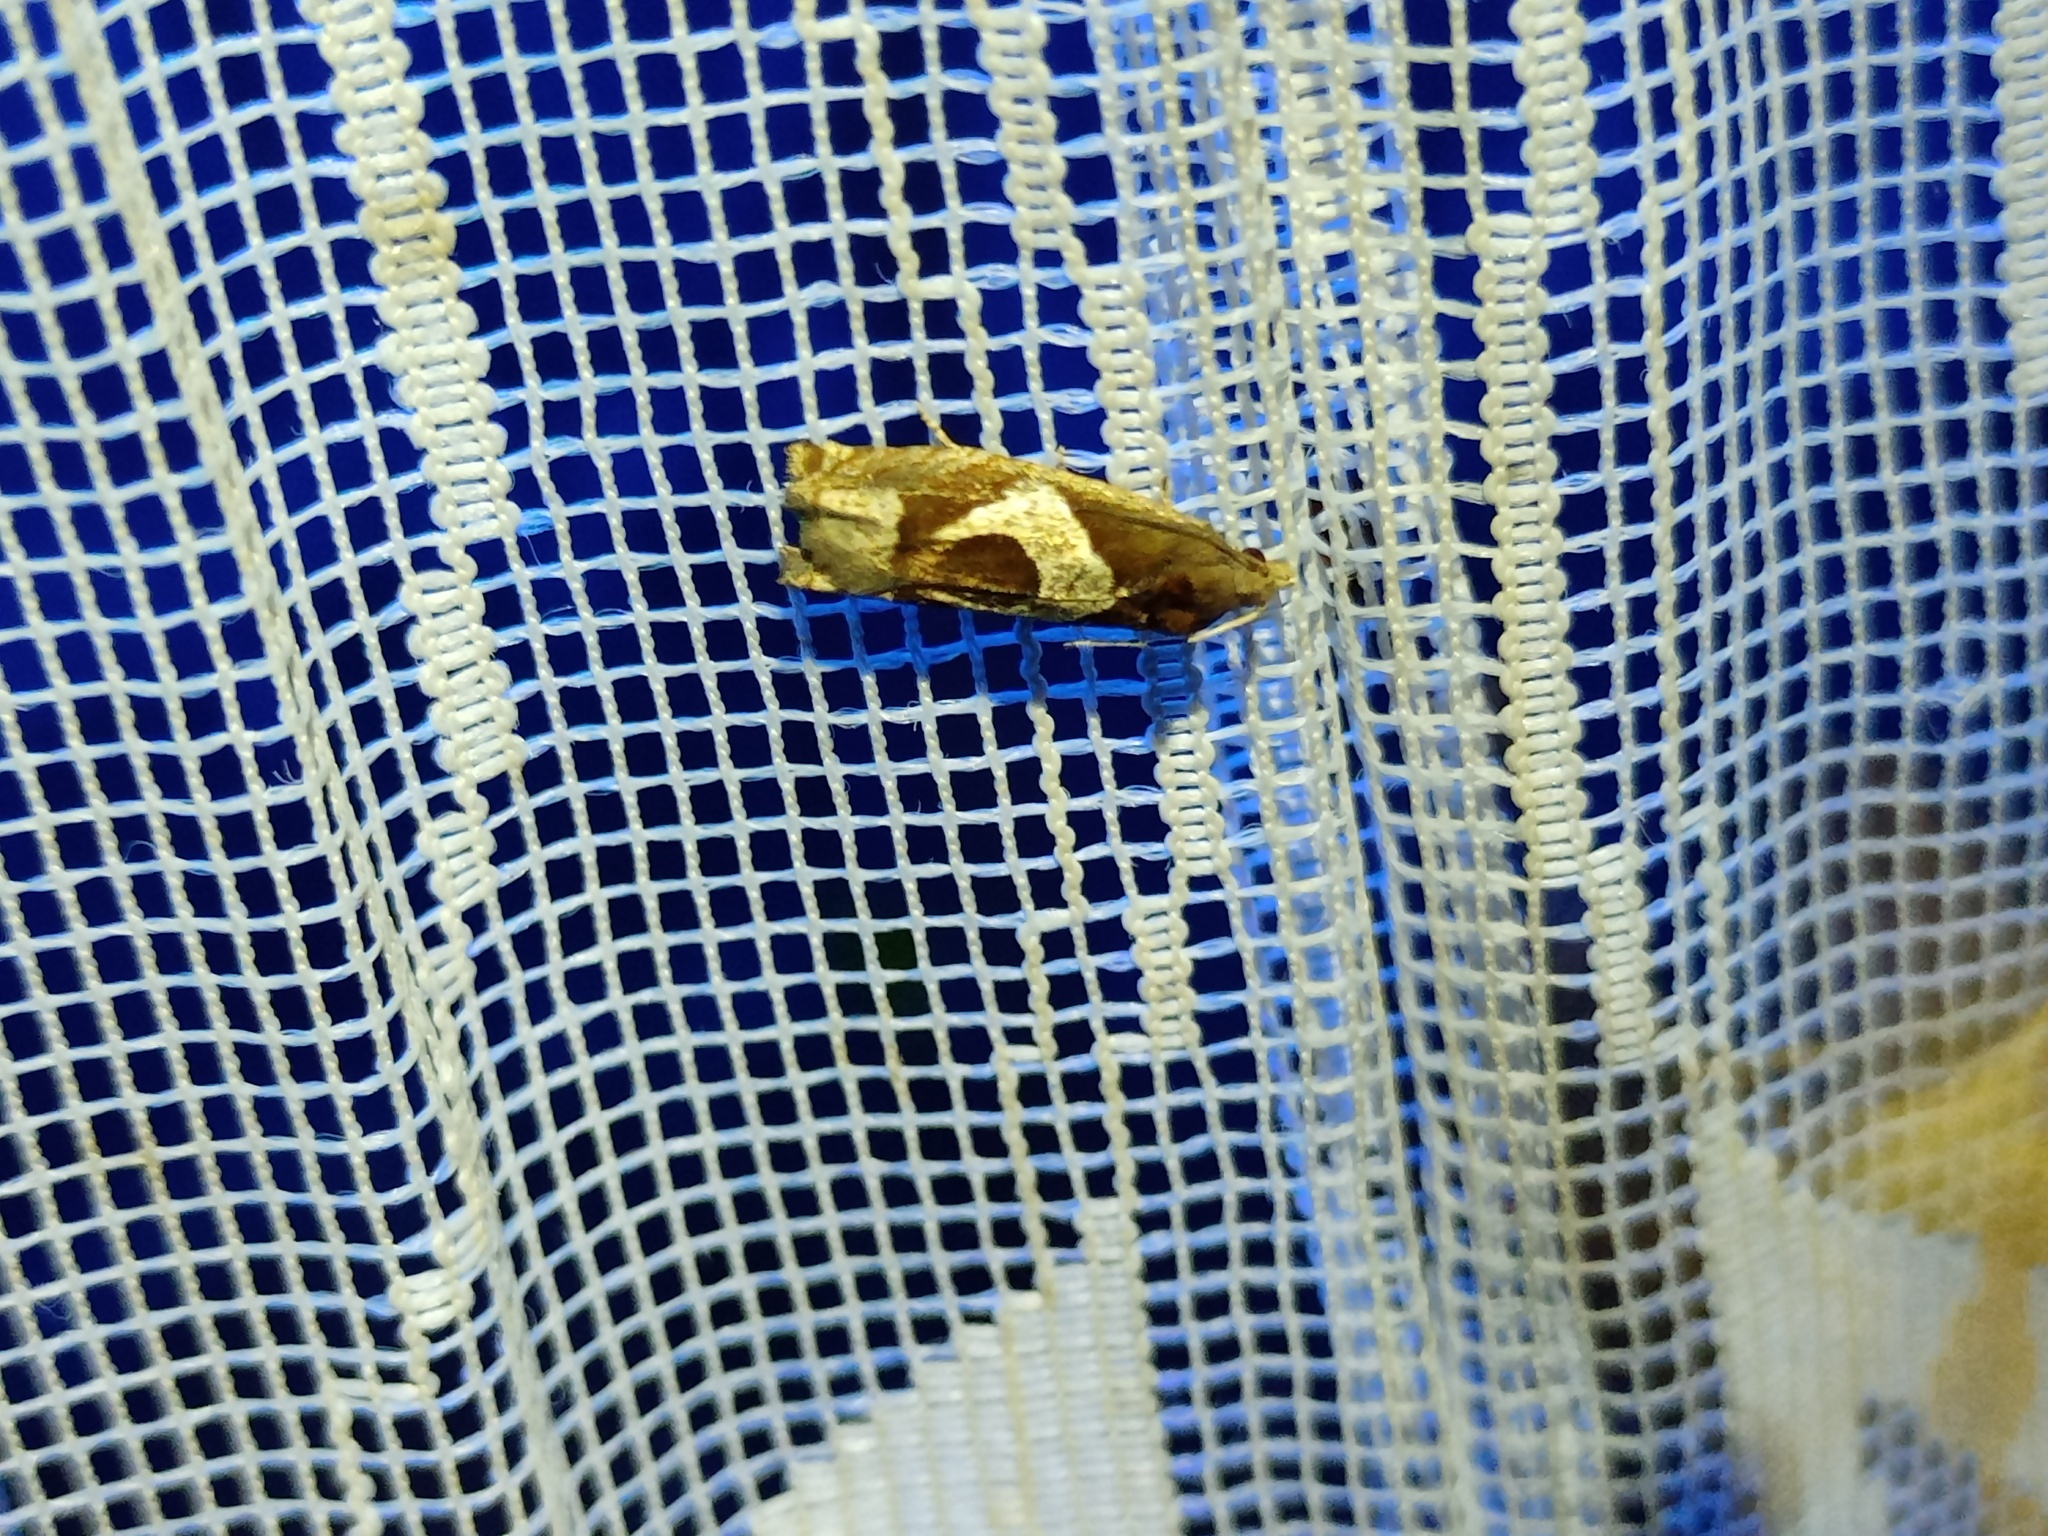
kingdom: Animalia
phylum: Arthropoda
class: Insecta
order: Lepidoptera
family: Tortricidae
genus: Epiblema
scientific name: Epiblema foenella
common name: White-foot bell
